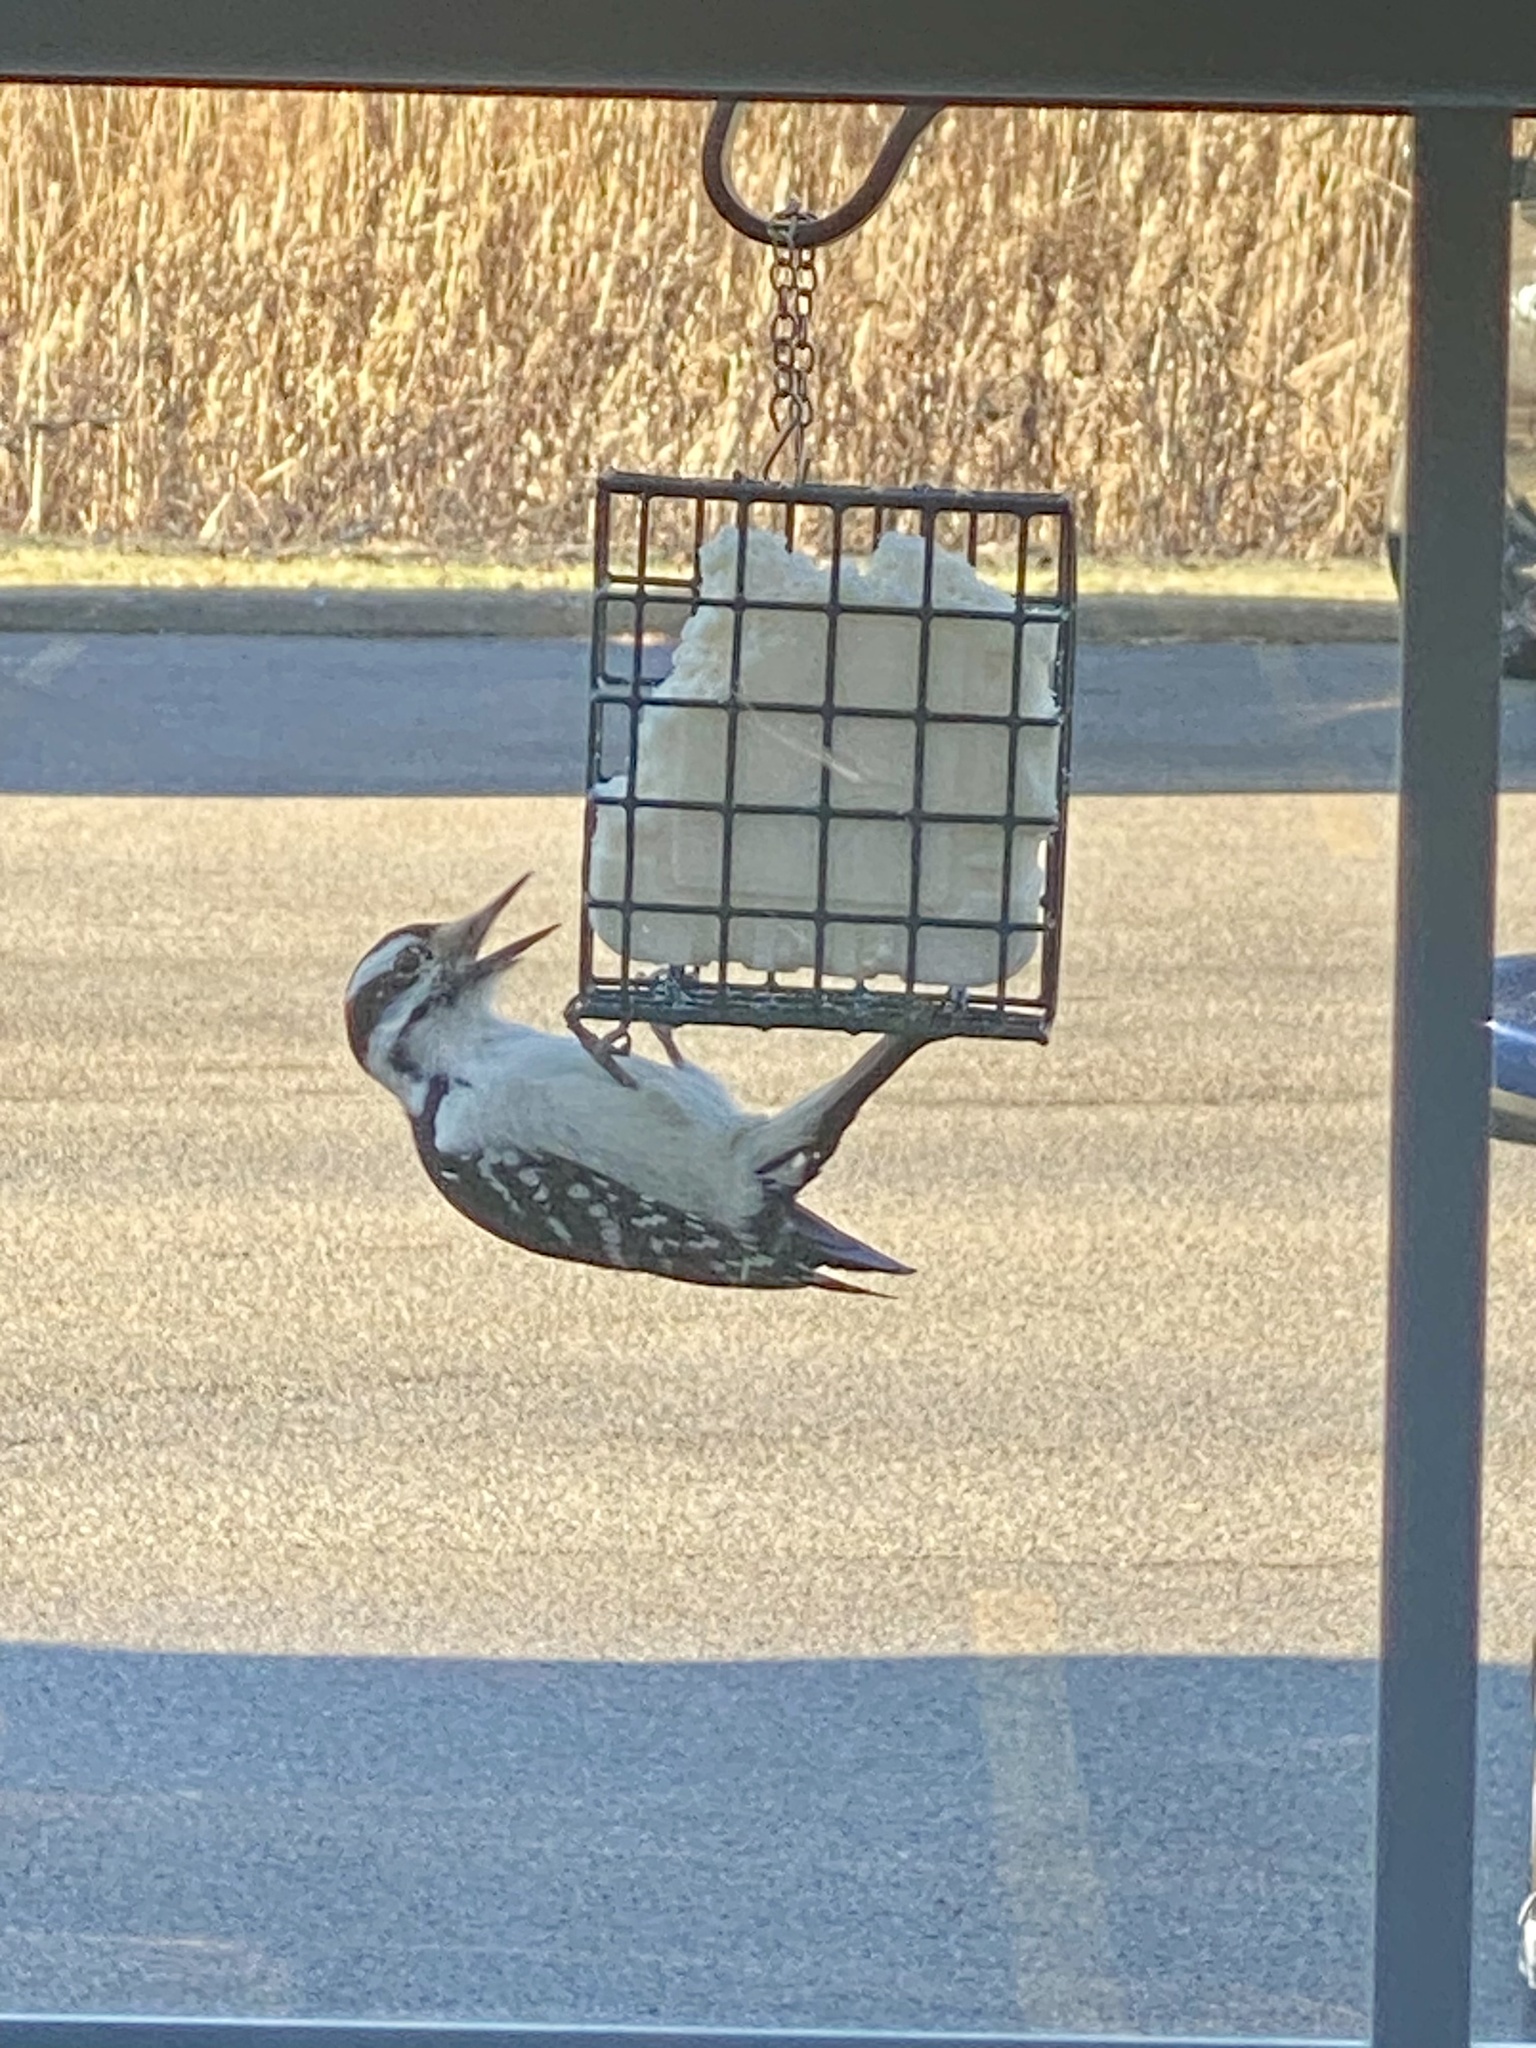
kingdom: Animalia
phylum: Chordata
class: Aves
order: Piciformes
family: Picidae
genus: Leuconotopicus
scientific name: Leuconotopicus villosus
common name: Hairy woodpecker
